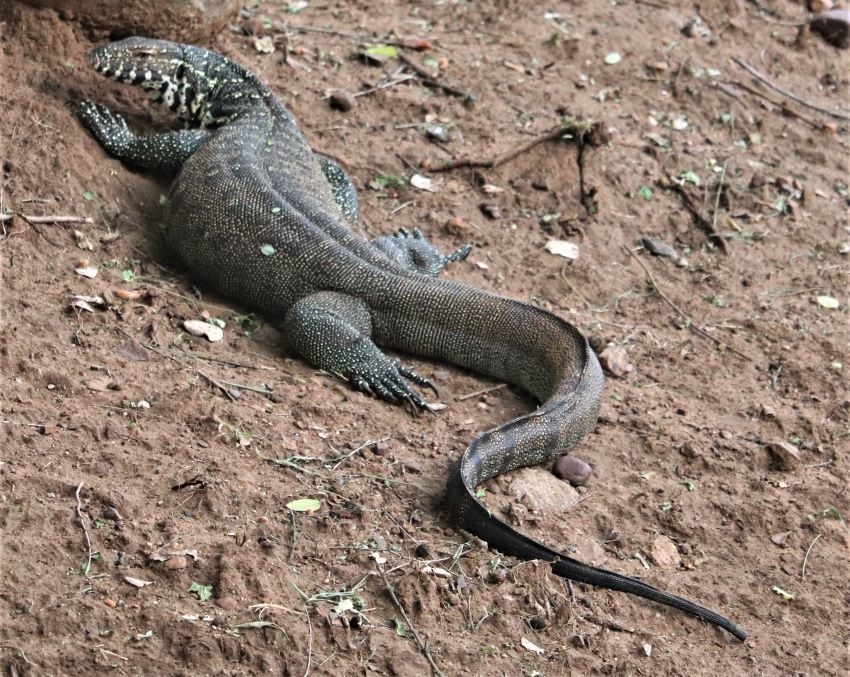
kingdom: Animalia
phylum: Chordata
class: Squamata
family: Varanidae
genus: Varanus
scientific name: Varanus niloticus
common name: Nile monitor
